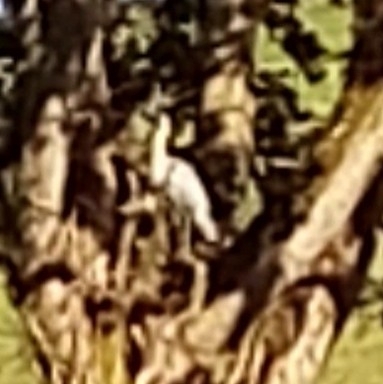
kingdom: Animalia
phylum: Chordata
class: Aves
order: Pelecaniformes
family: Ardeidae
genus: Ardea
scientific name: Ardea cinerea
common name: Grey heron
